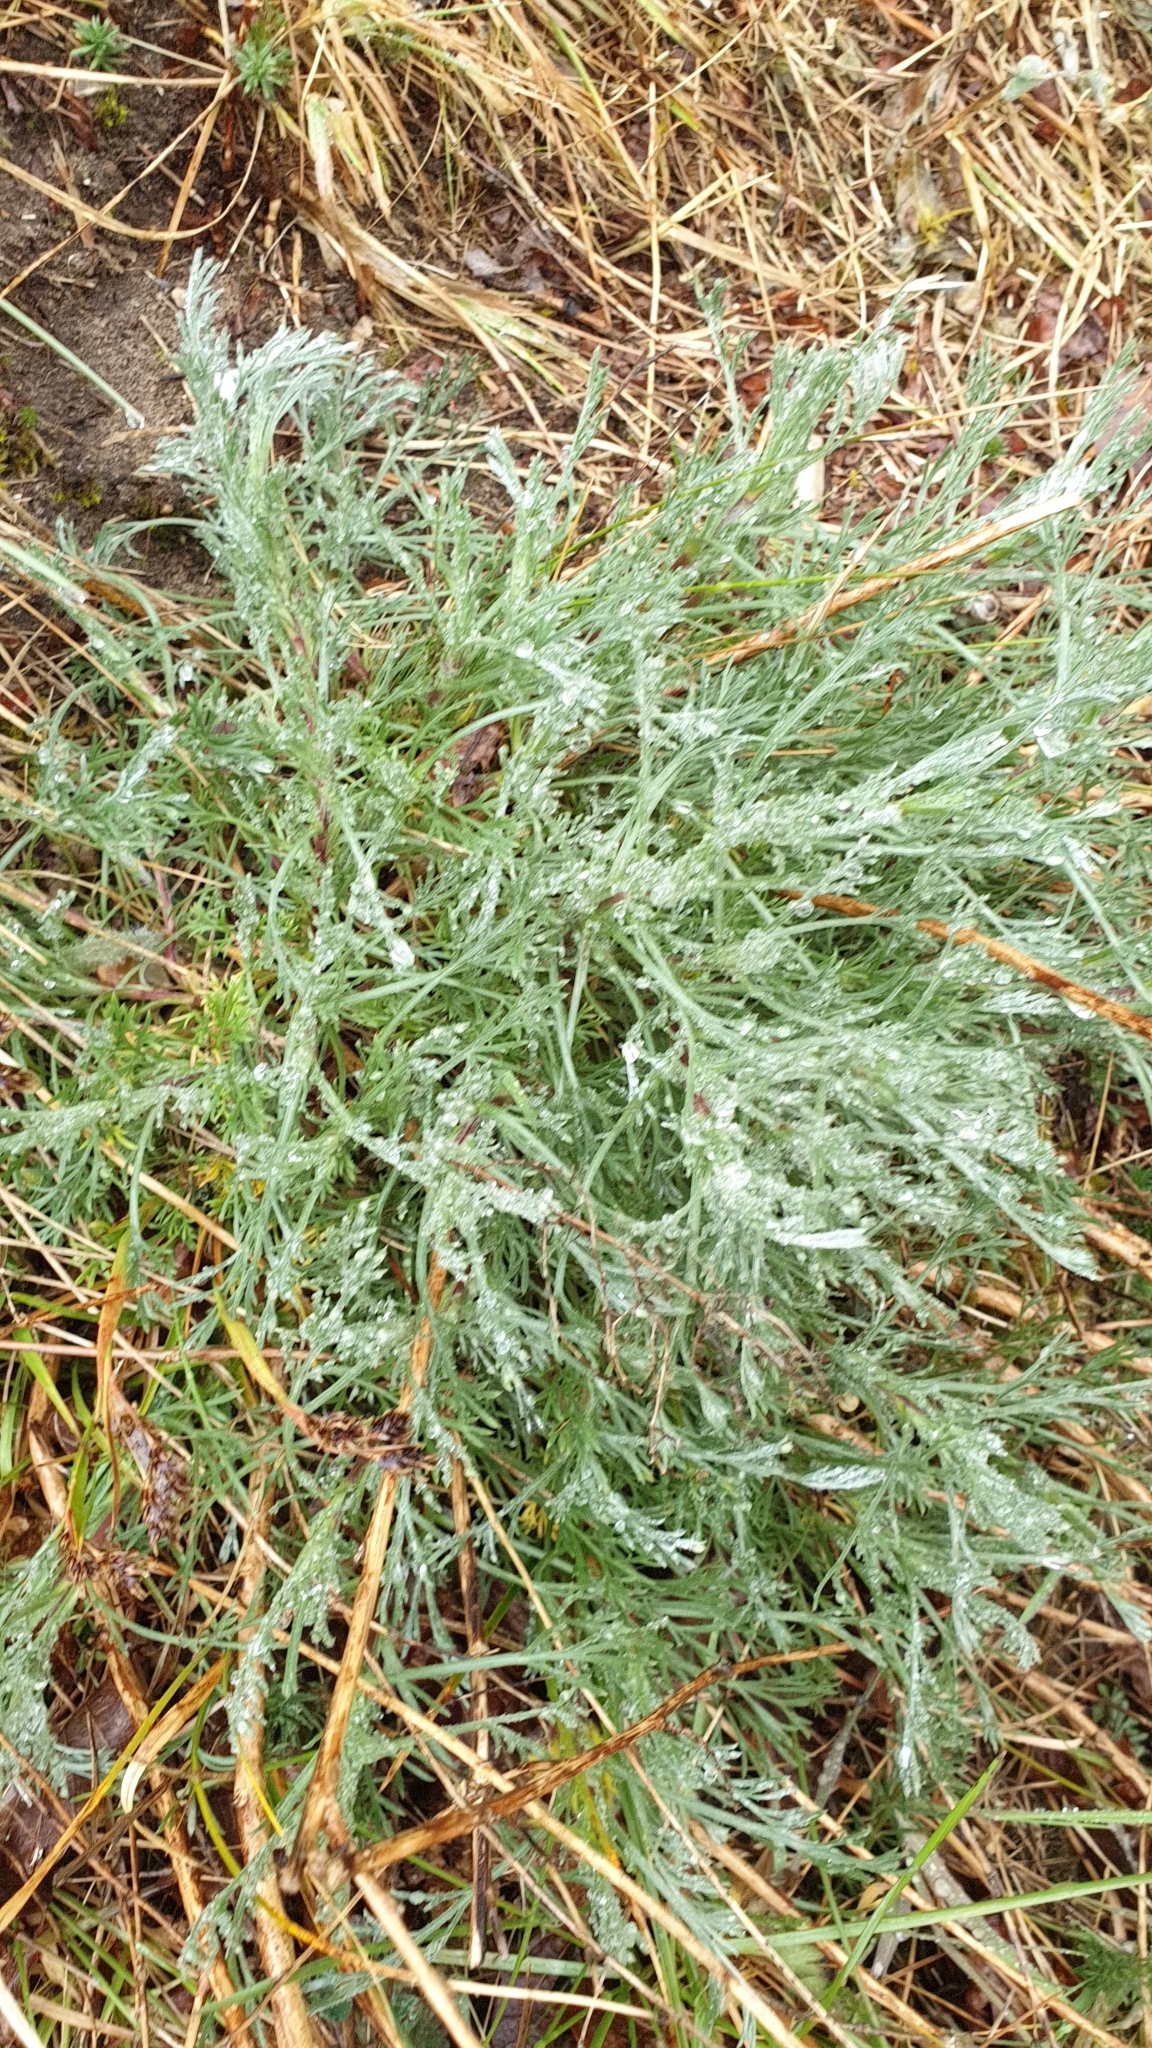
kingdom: Plantae
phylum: Tracheophyta
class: Magnoliopsida
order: Asterales
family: Asteraceae
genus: Artemisia
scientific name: Artemisia campestris
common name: Field wormwood
